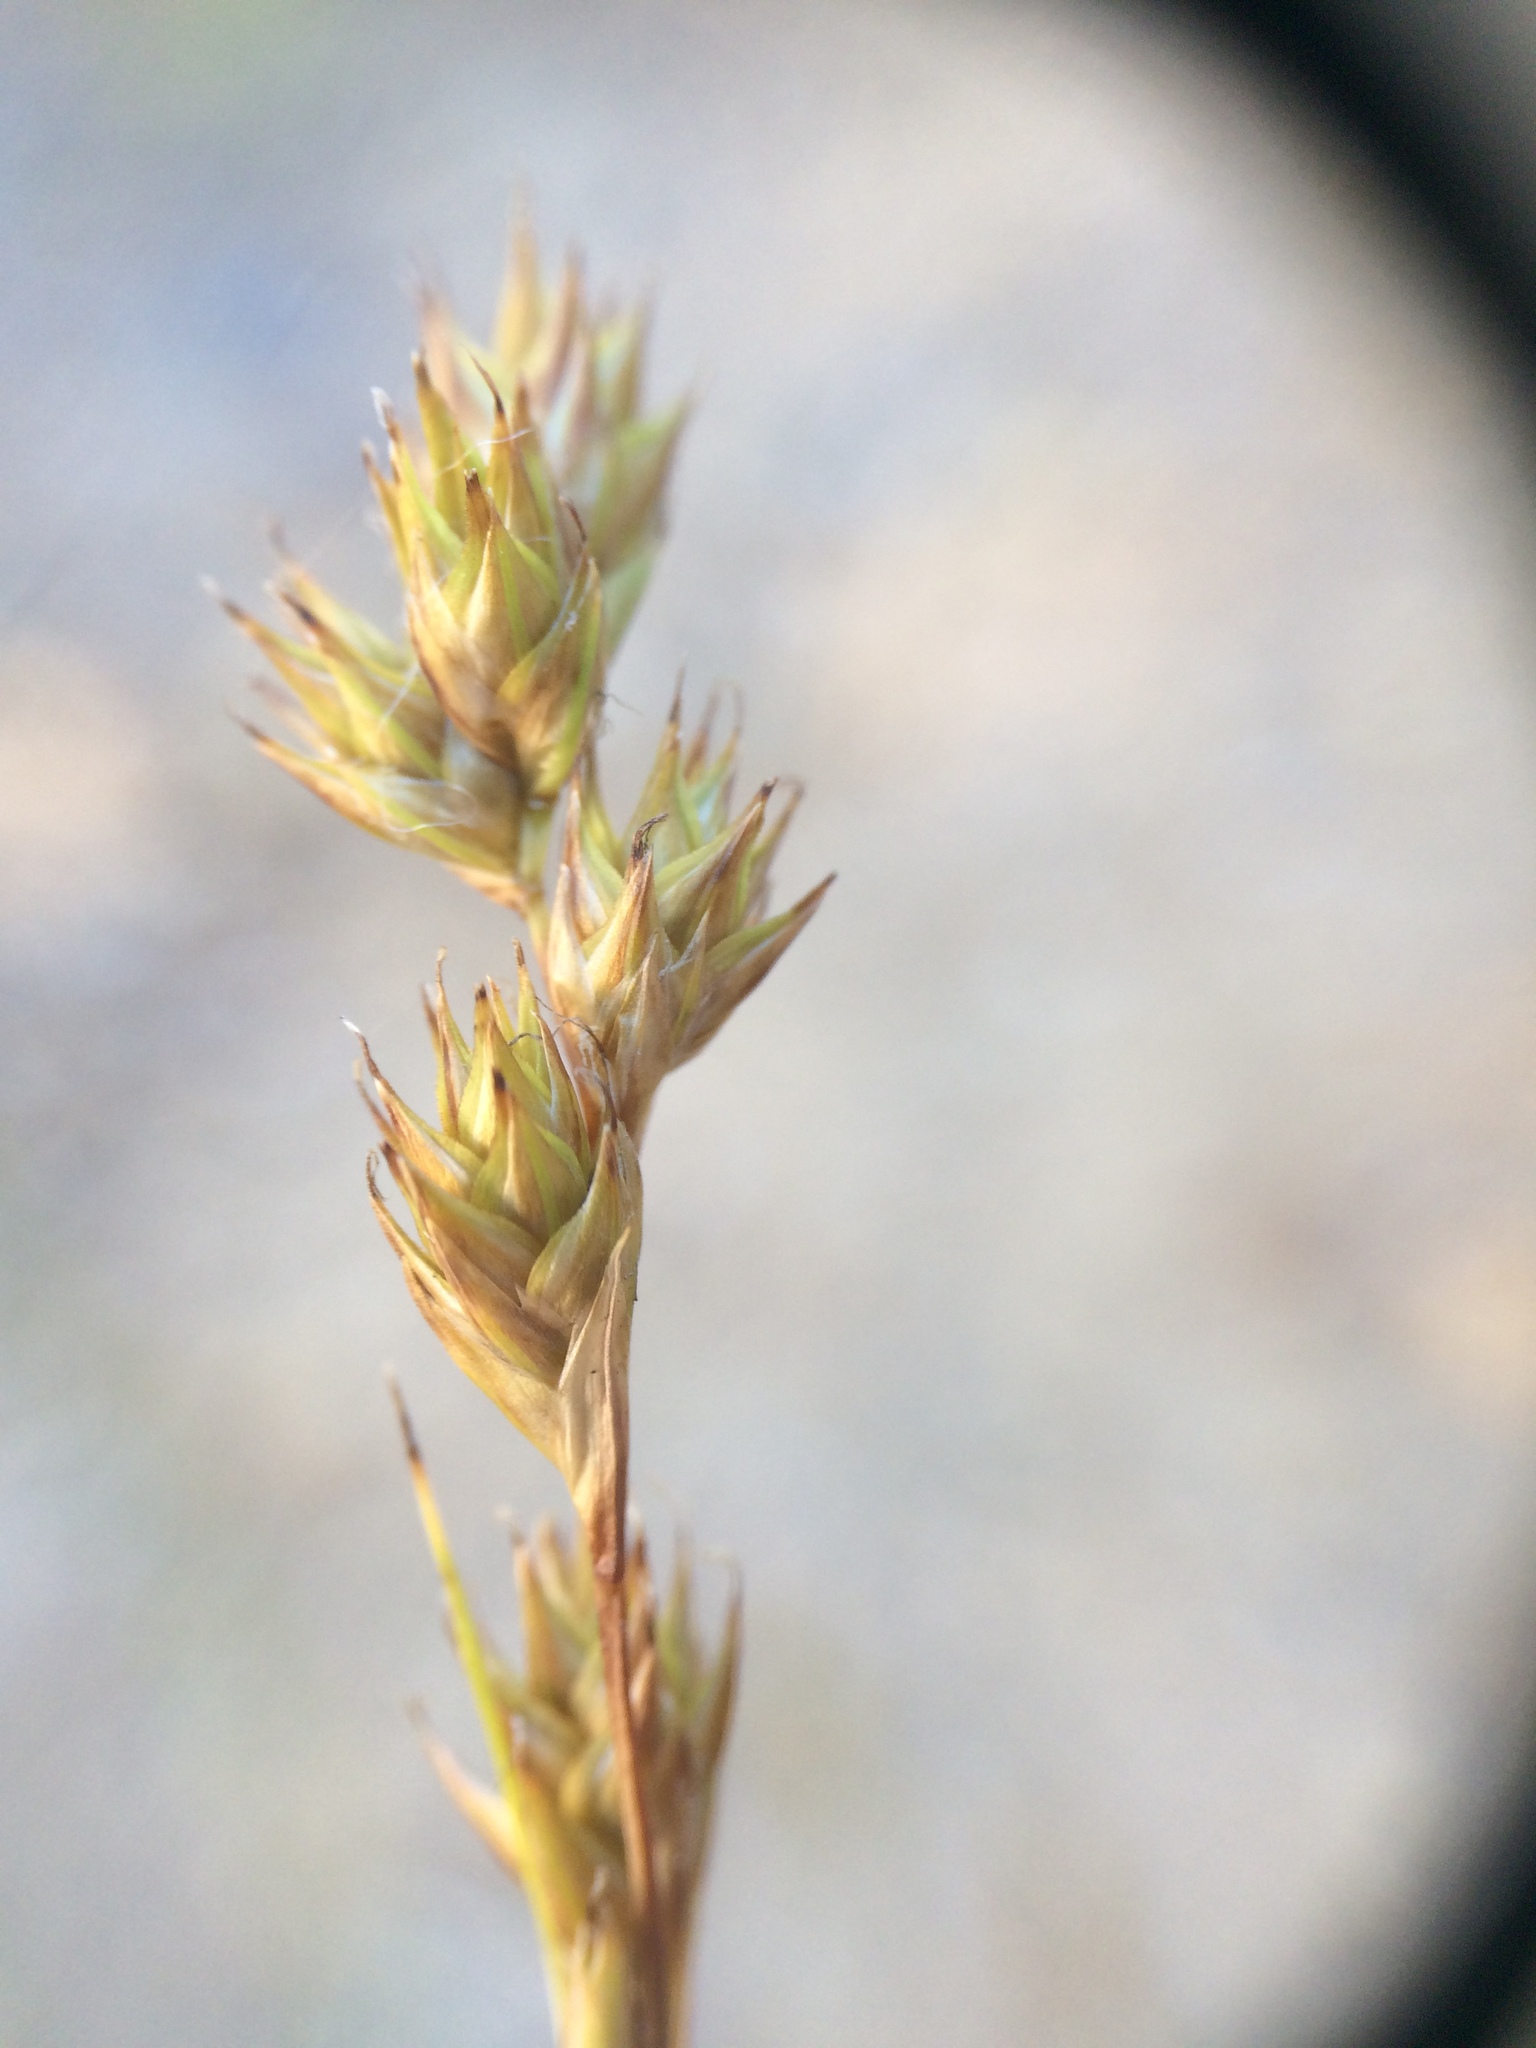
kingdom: Plantae
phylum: Tracheophyta
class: Liliopsida
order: Poales
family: Cyperaceae
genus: Carex
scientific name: Carex foenea
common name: Bronze sedge
